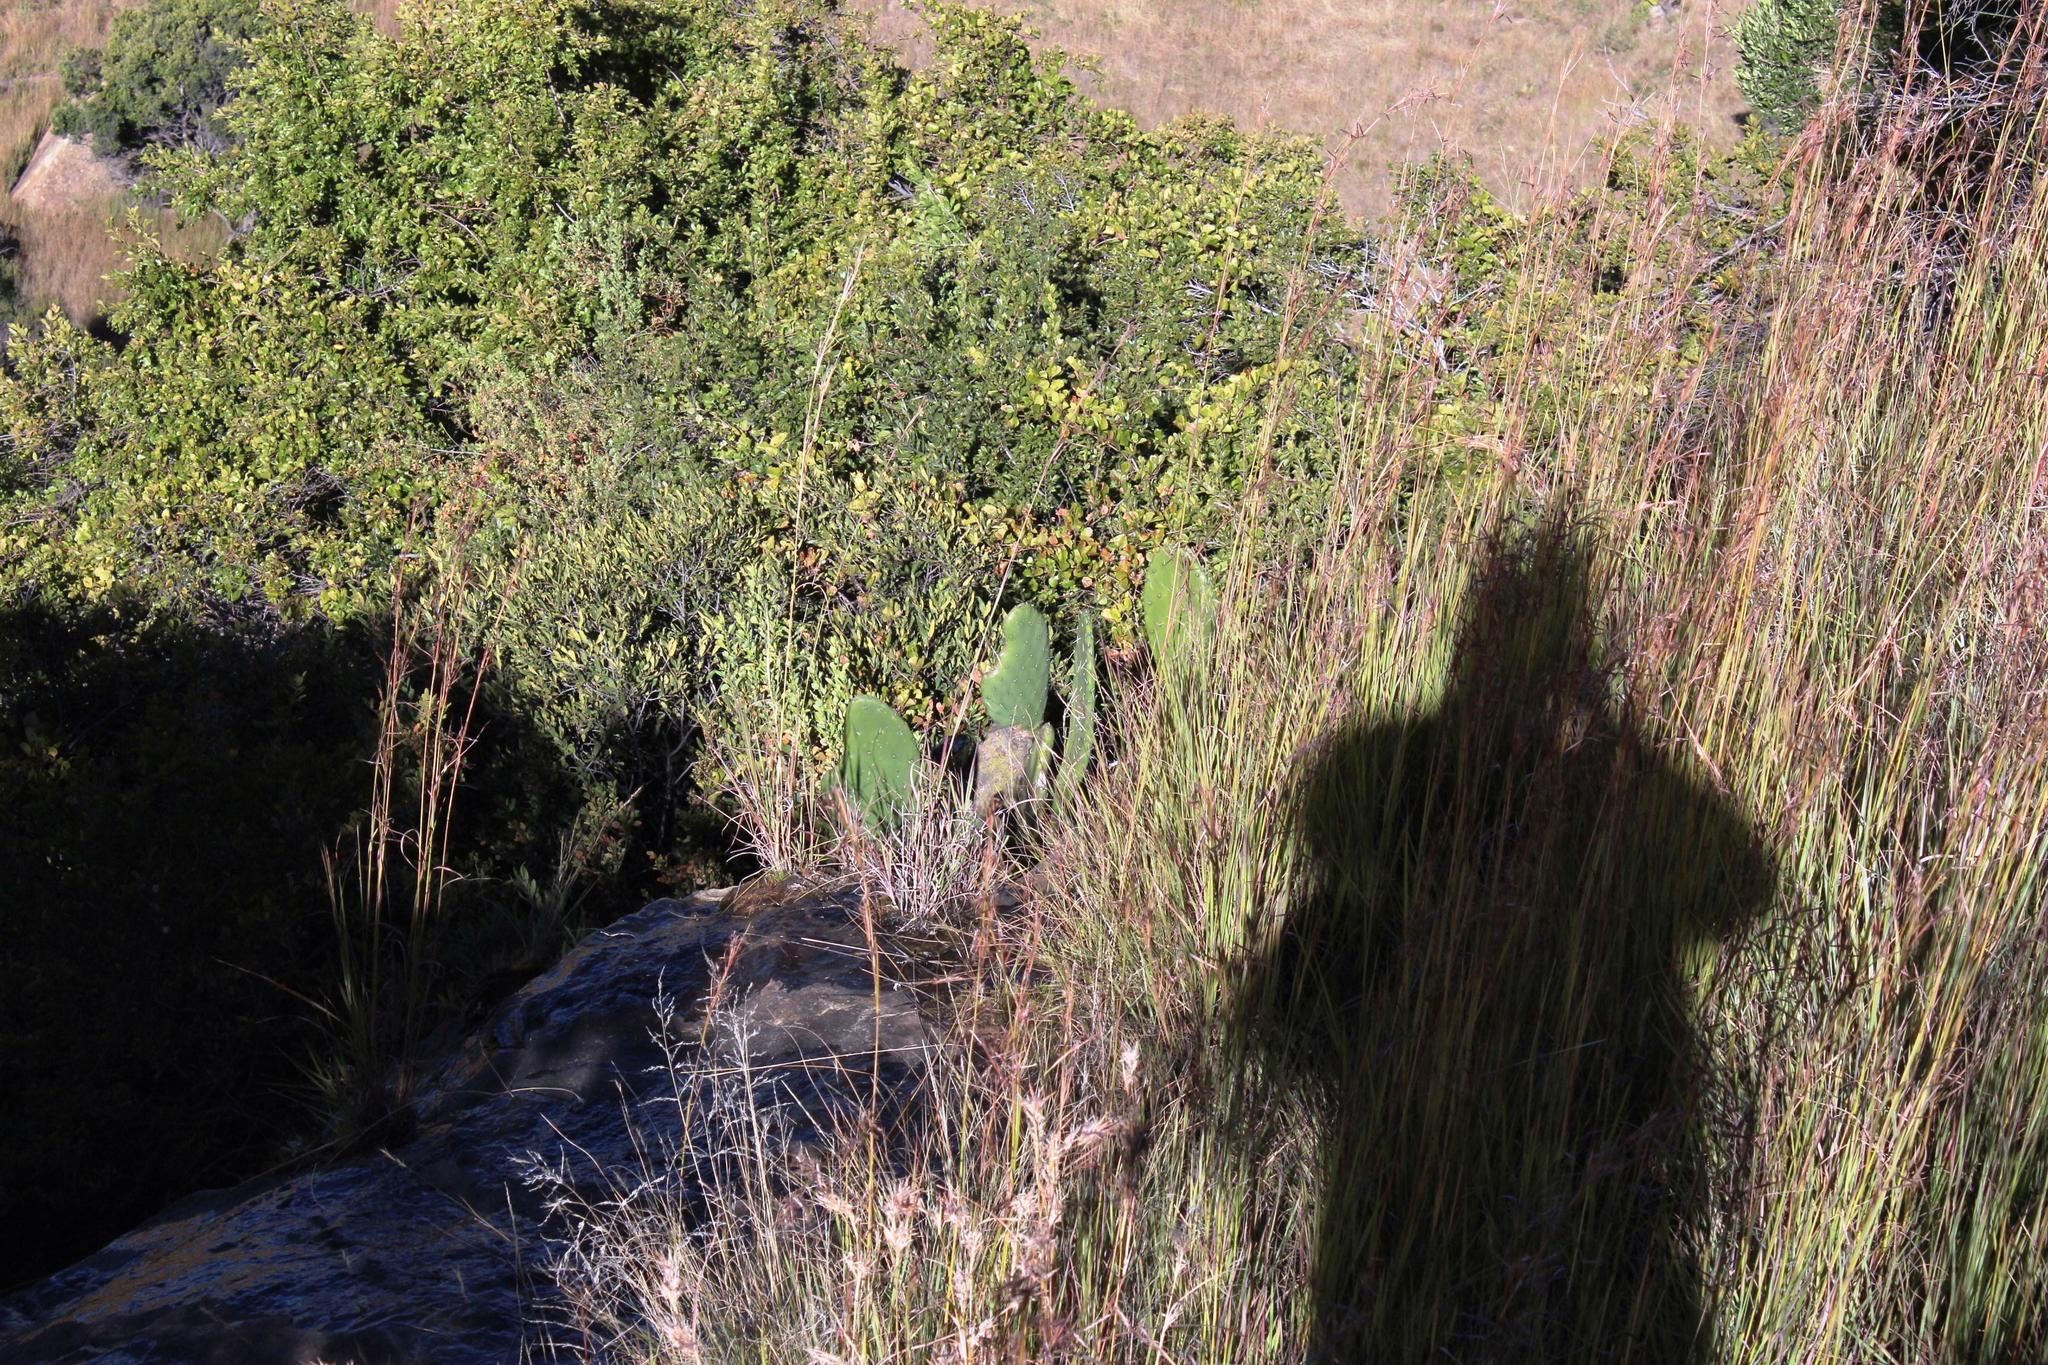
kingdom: Plantae
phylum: Tracheophyta
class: Magnoliopsida
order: Caryophyllales
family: Cactaceae
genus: Opuntia
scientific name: Opuntia ficus-indica
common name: Barbary fig
